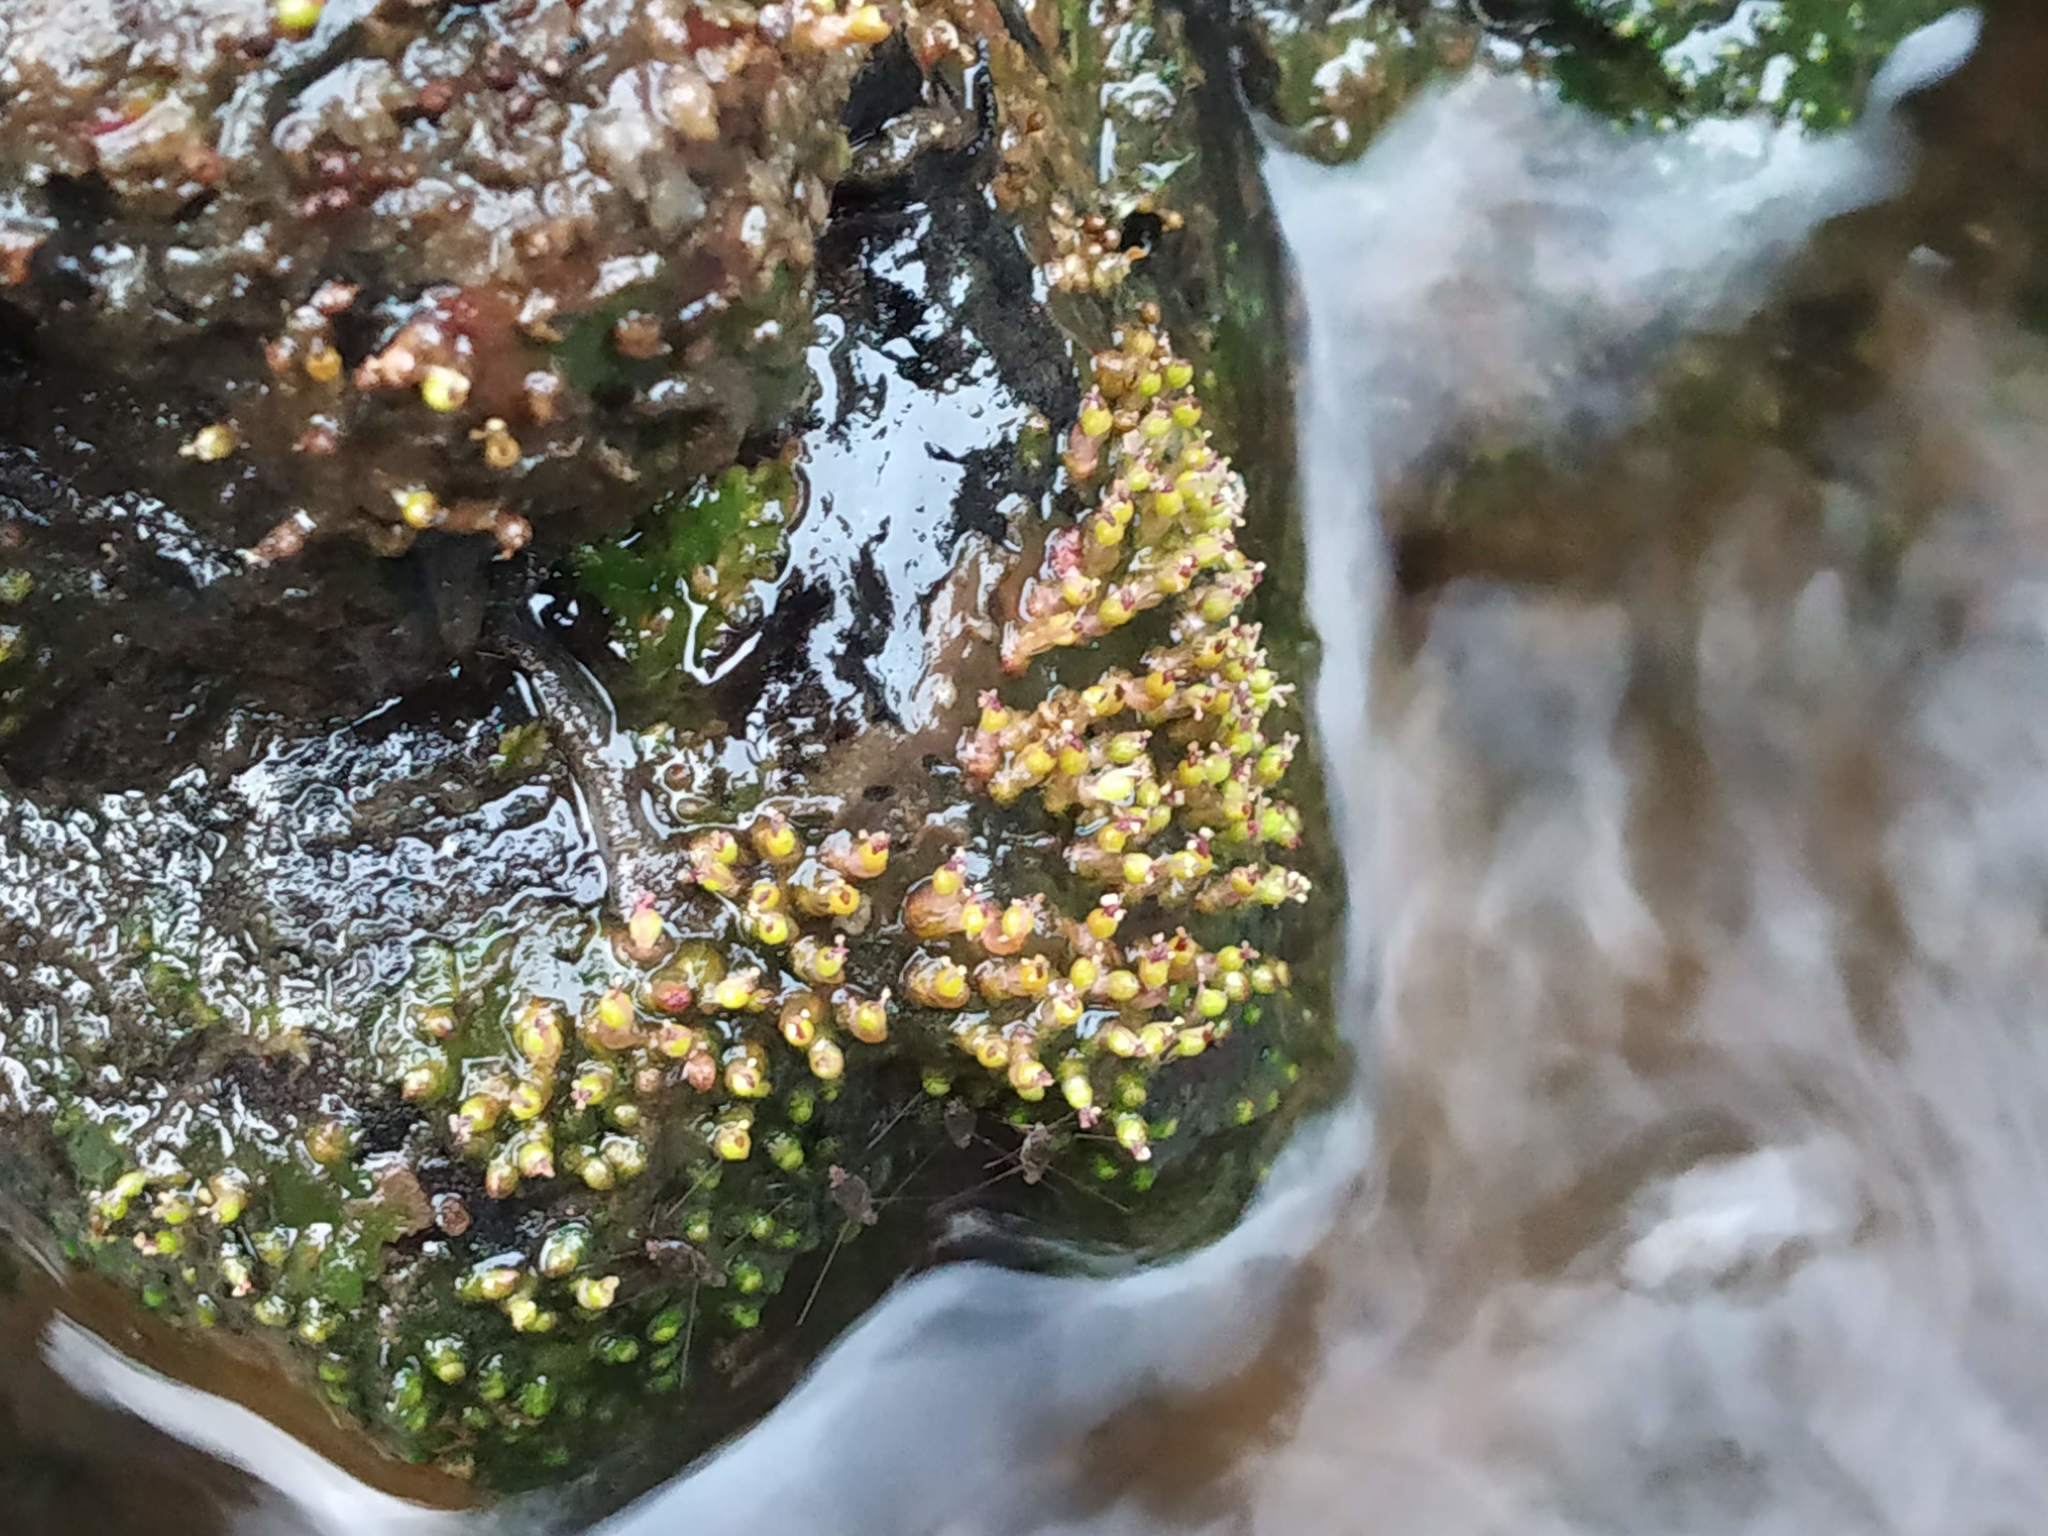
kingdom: Plantae
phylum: Tracheophyta
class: Magnoliopsida
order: Malpighiales
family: Podostemaceae
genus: Cladopus
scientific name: Cladopus hookeriana
